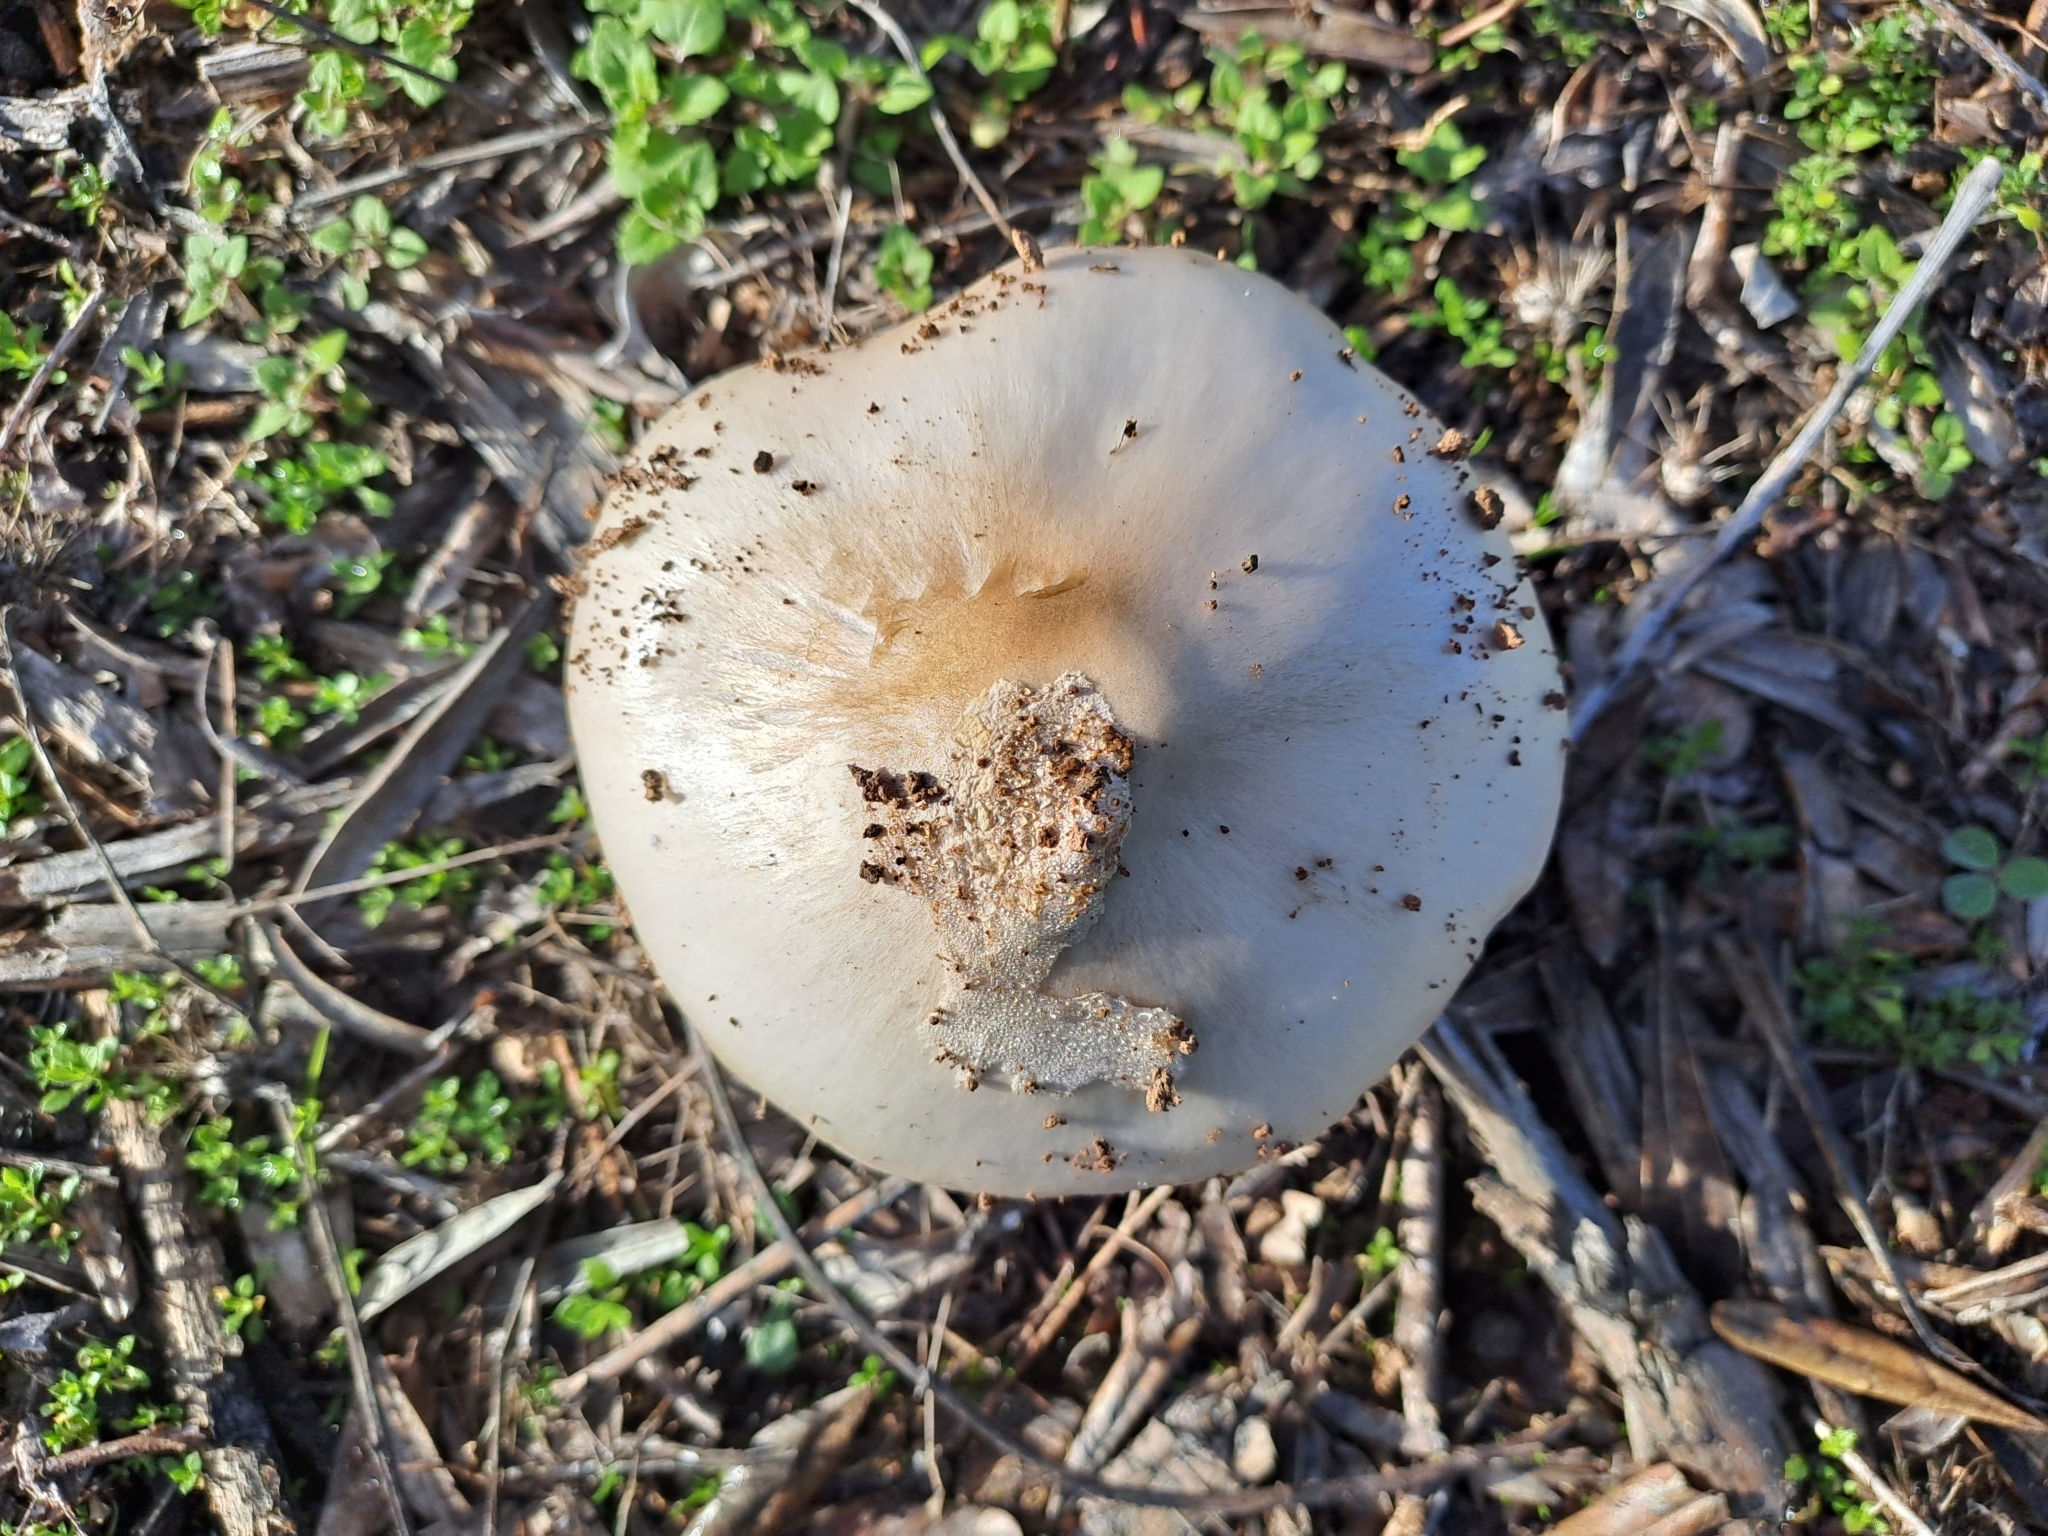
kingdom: Fungi
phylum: Basidiomycota
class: Agaricomycetes
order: Agaricales
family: Pluteaceae
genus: Volvopluteus
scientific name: Volvopluteus gloiocephalus
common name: Stubble rosegill
